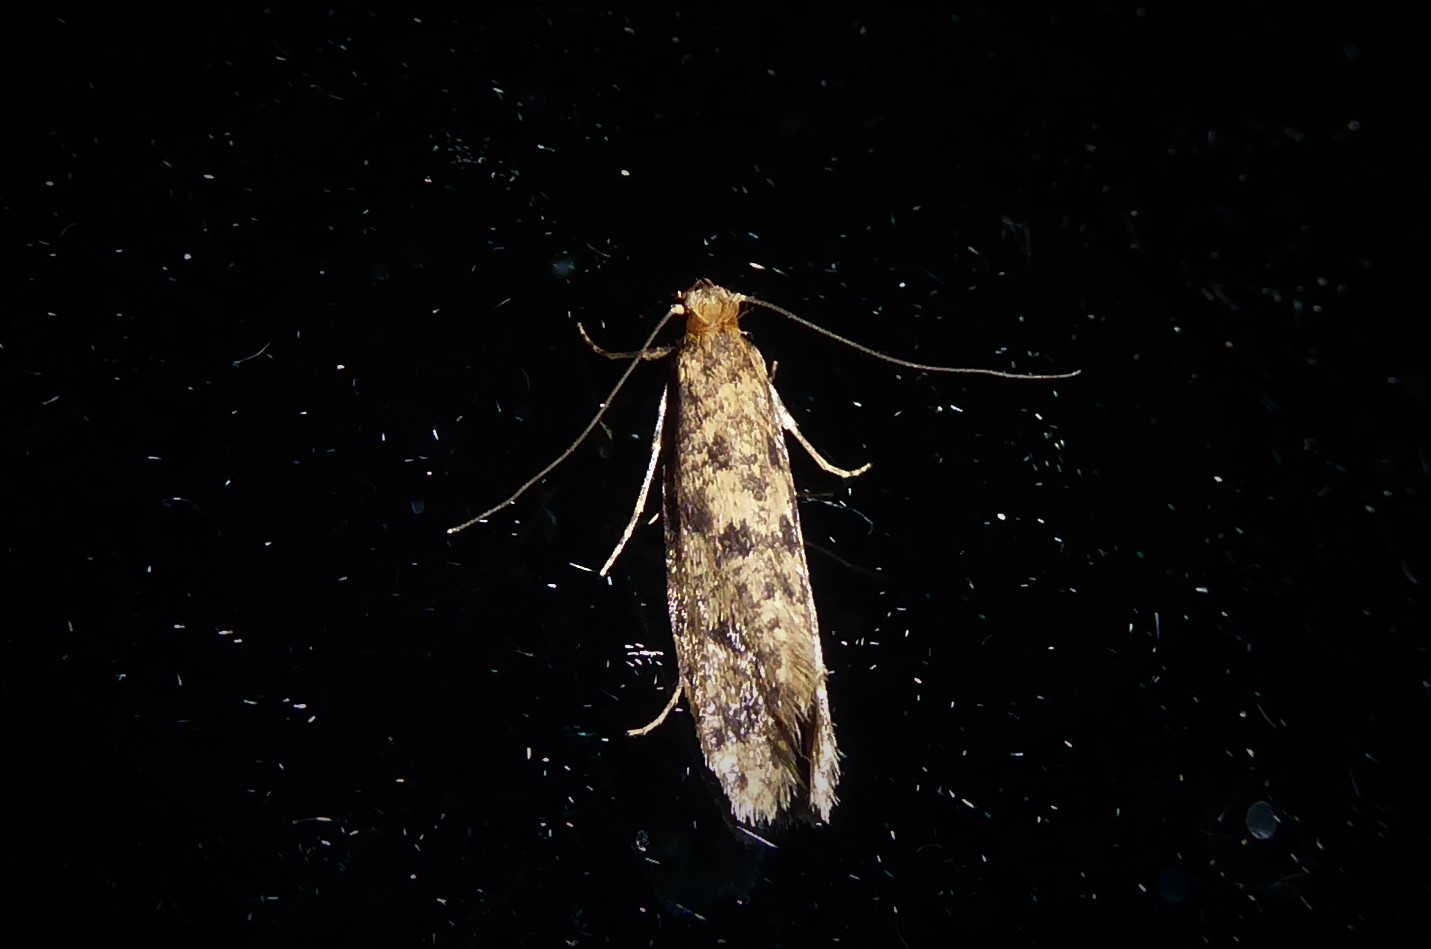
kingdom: Animalia
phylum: Arthropoda
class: Insecta
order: Lepidoptera
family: Tineidae
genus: Archyala
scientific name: Archyala terranea
